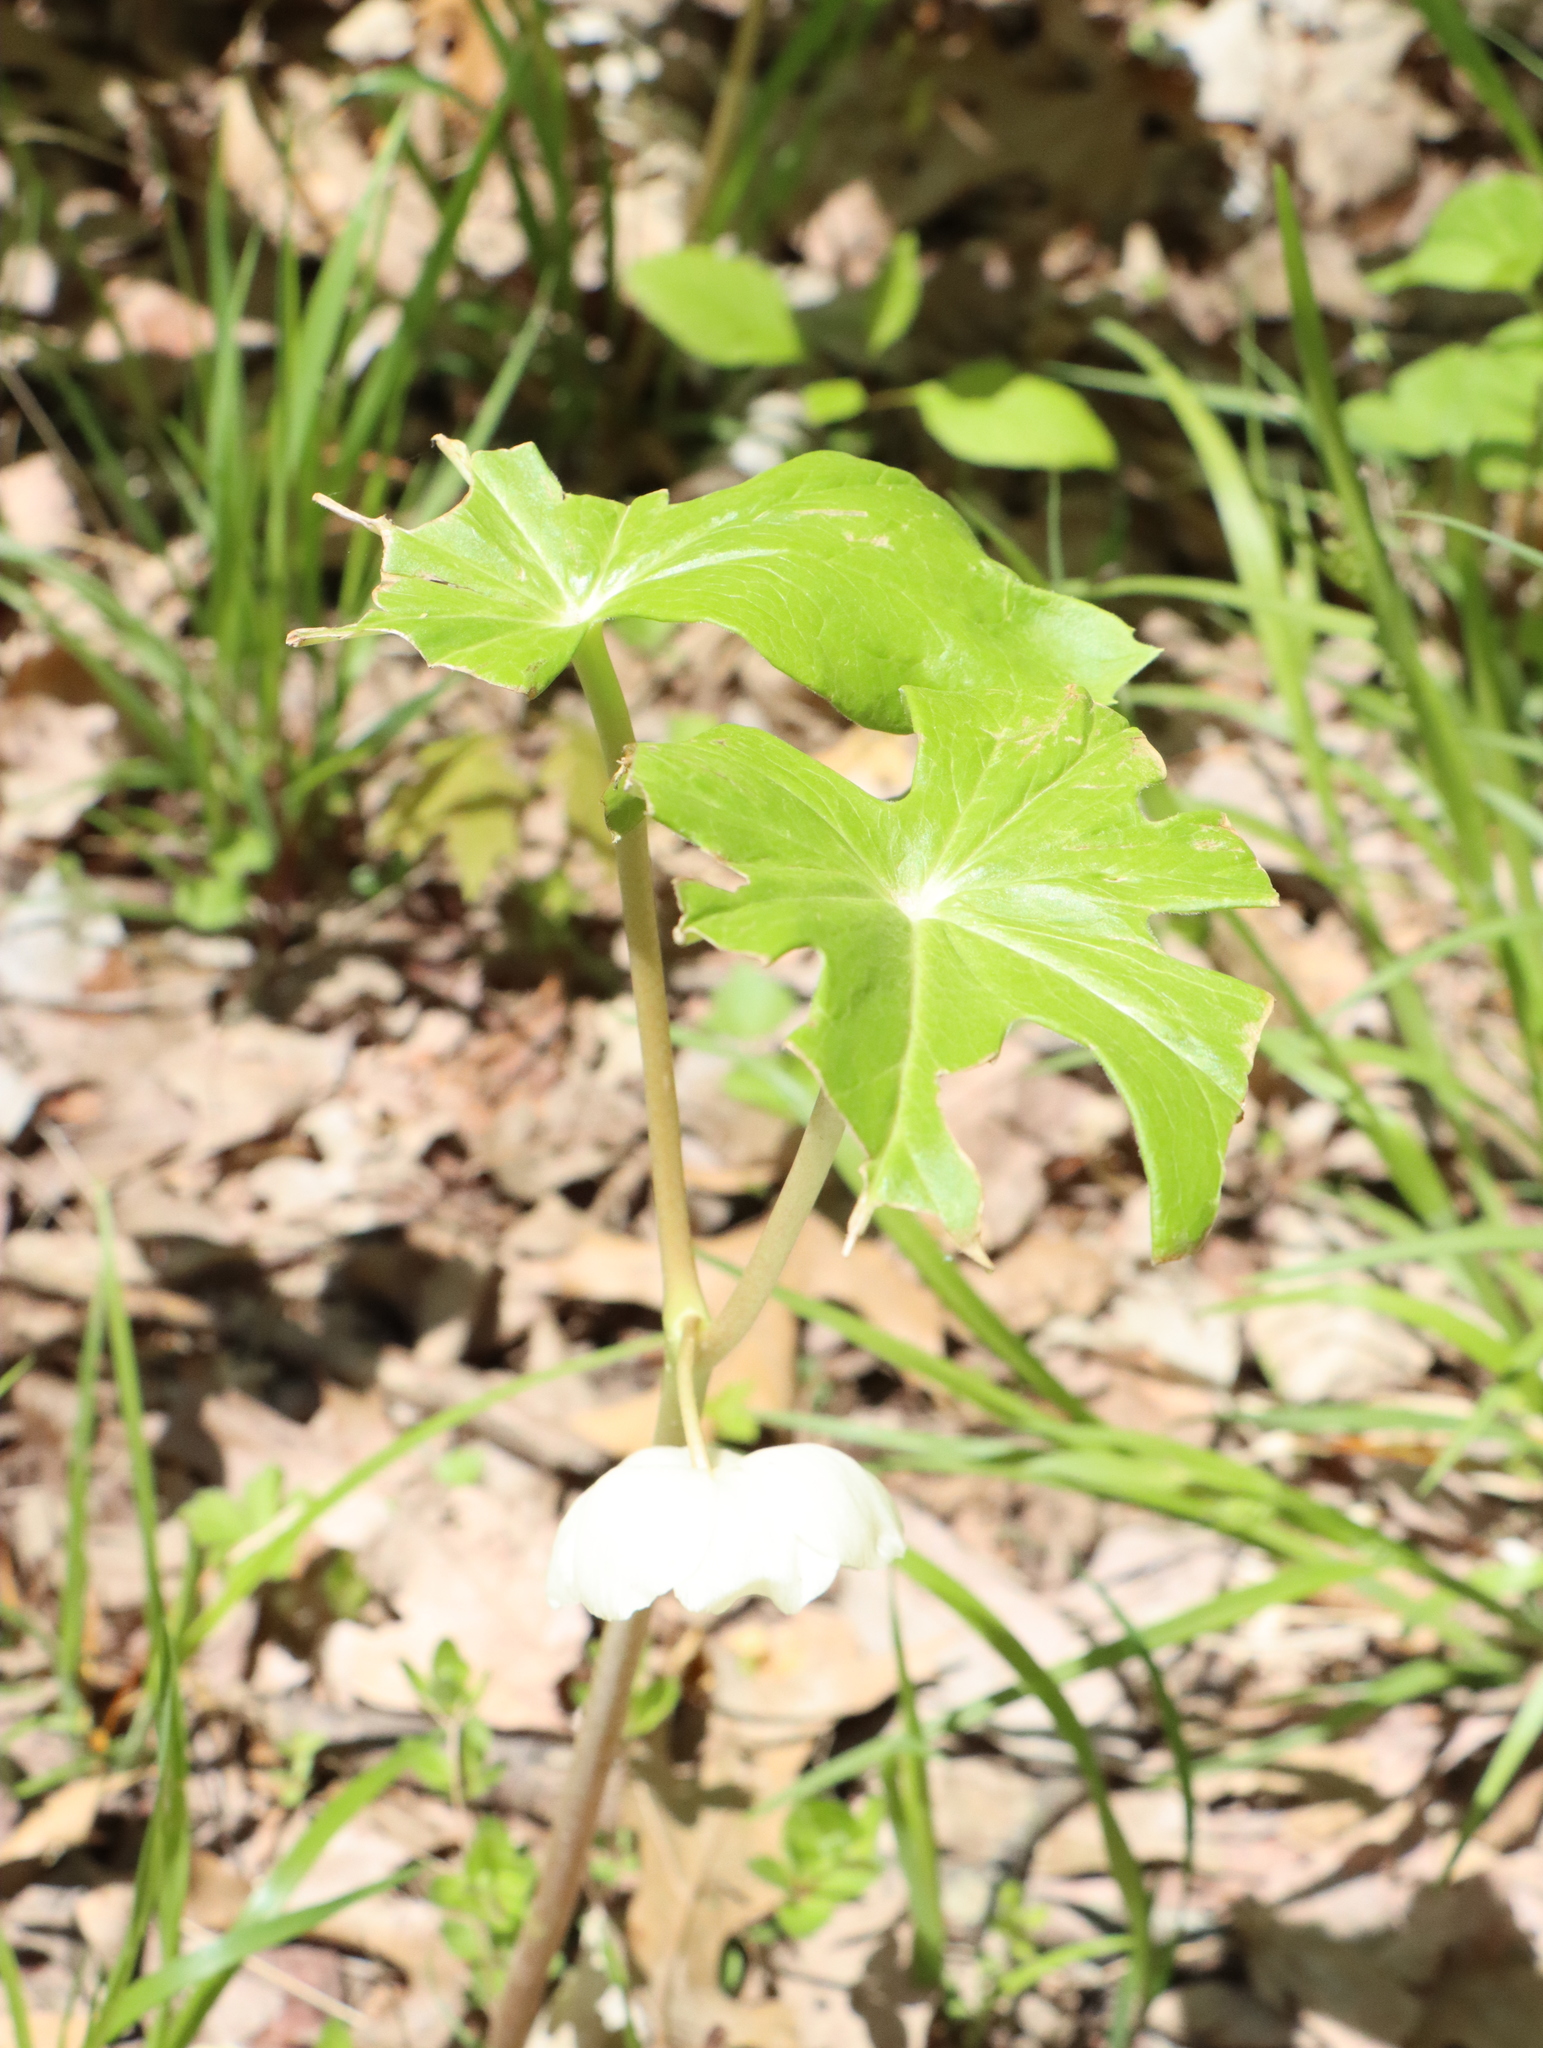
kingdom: Plantae
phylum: Tracheophyta
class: Magnoliopsida
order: Ranunculales
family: Berberidaceae
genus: Podophyllum
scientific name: Podophyllum peltatum
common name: Wild mandrake
